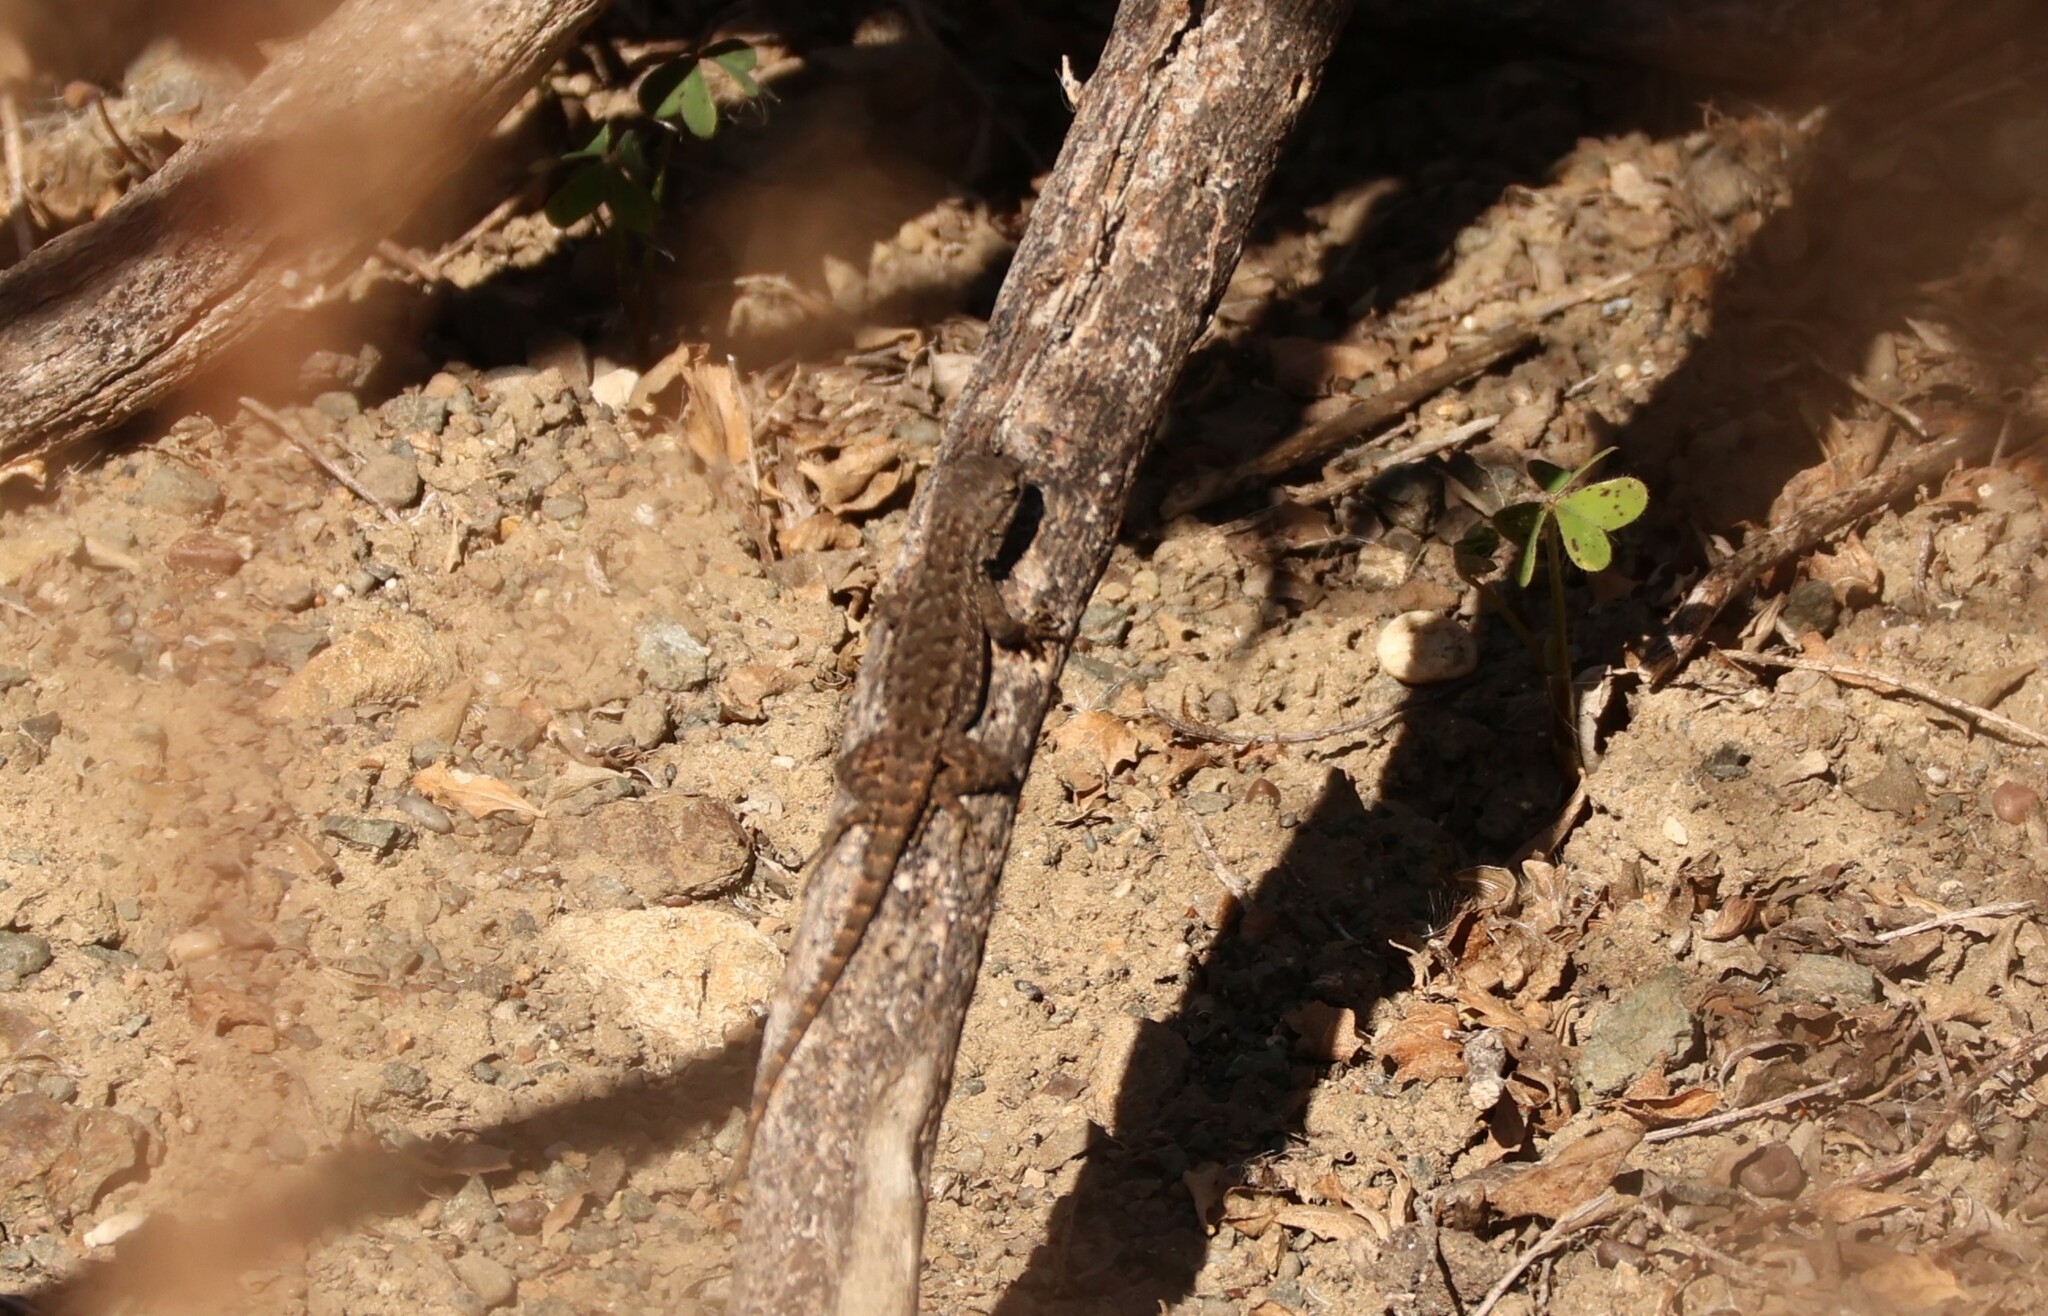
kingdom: Animalia
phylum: Chordata
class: Squamata
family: Phrynosomatidae
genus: Sceloporus
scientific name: Sceloporus occidentalis
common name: Western fence lizard
